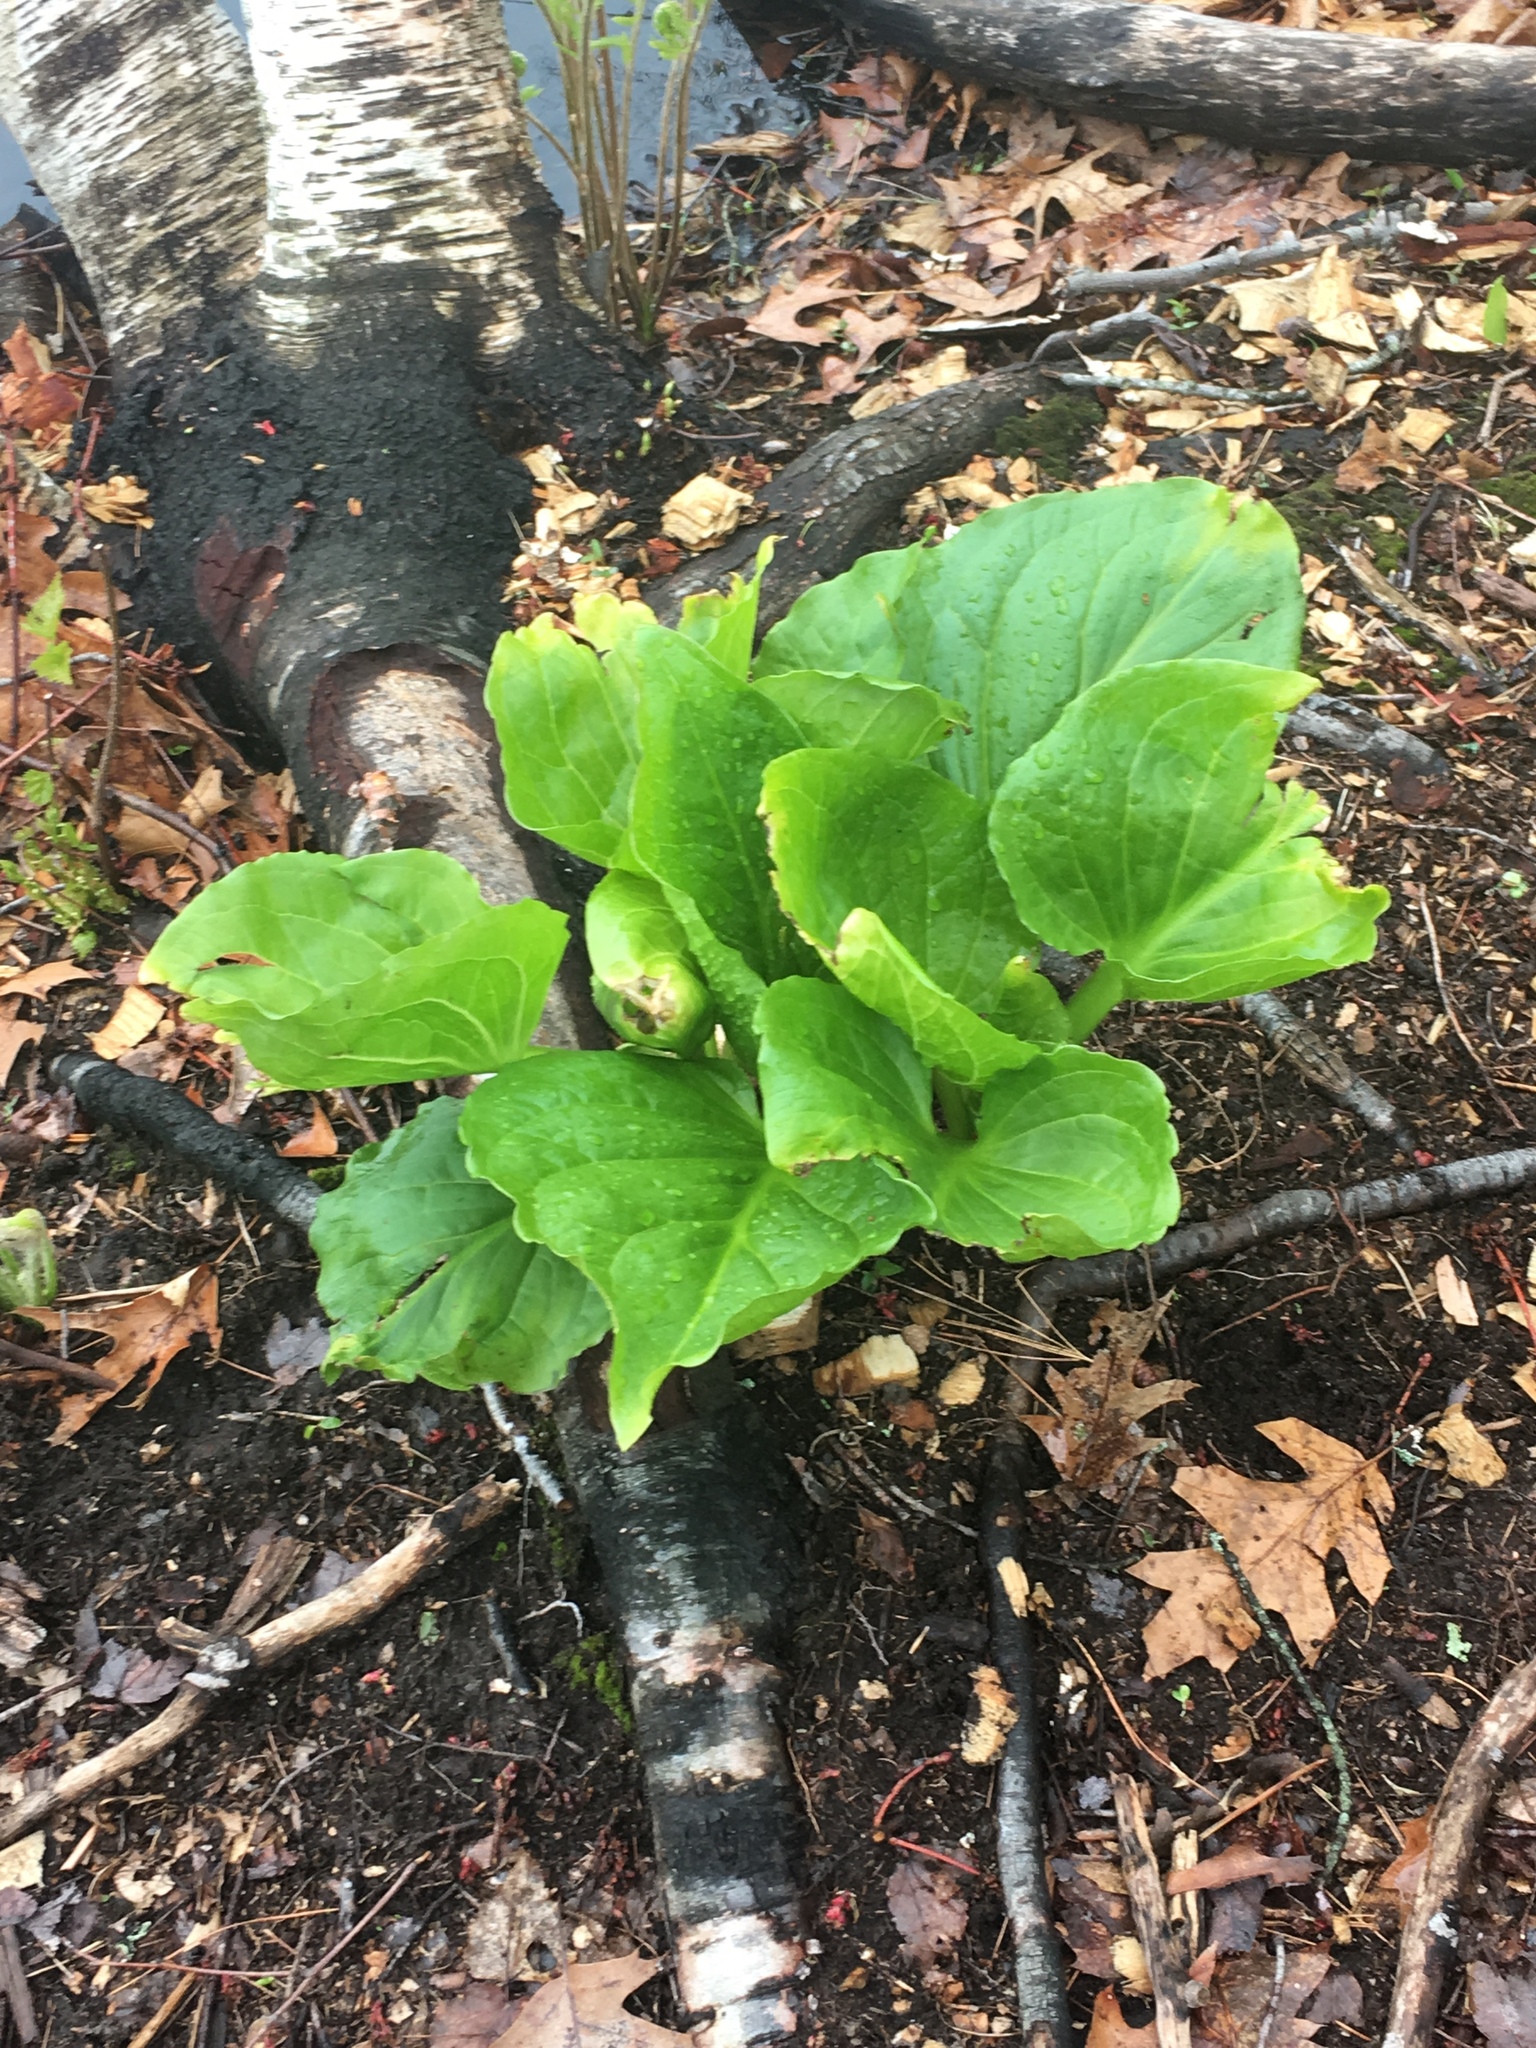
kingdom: Plantae
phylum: Tracheophyta
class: Liliopsida
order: Alismatales
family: Araceae
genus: Symplocarpus
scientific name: Symplocarpus foetidus
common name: Eastern skunk cabbage
